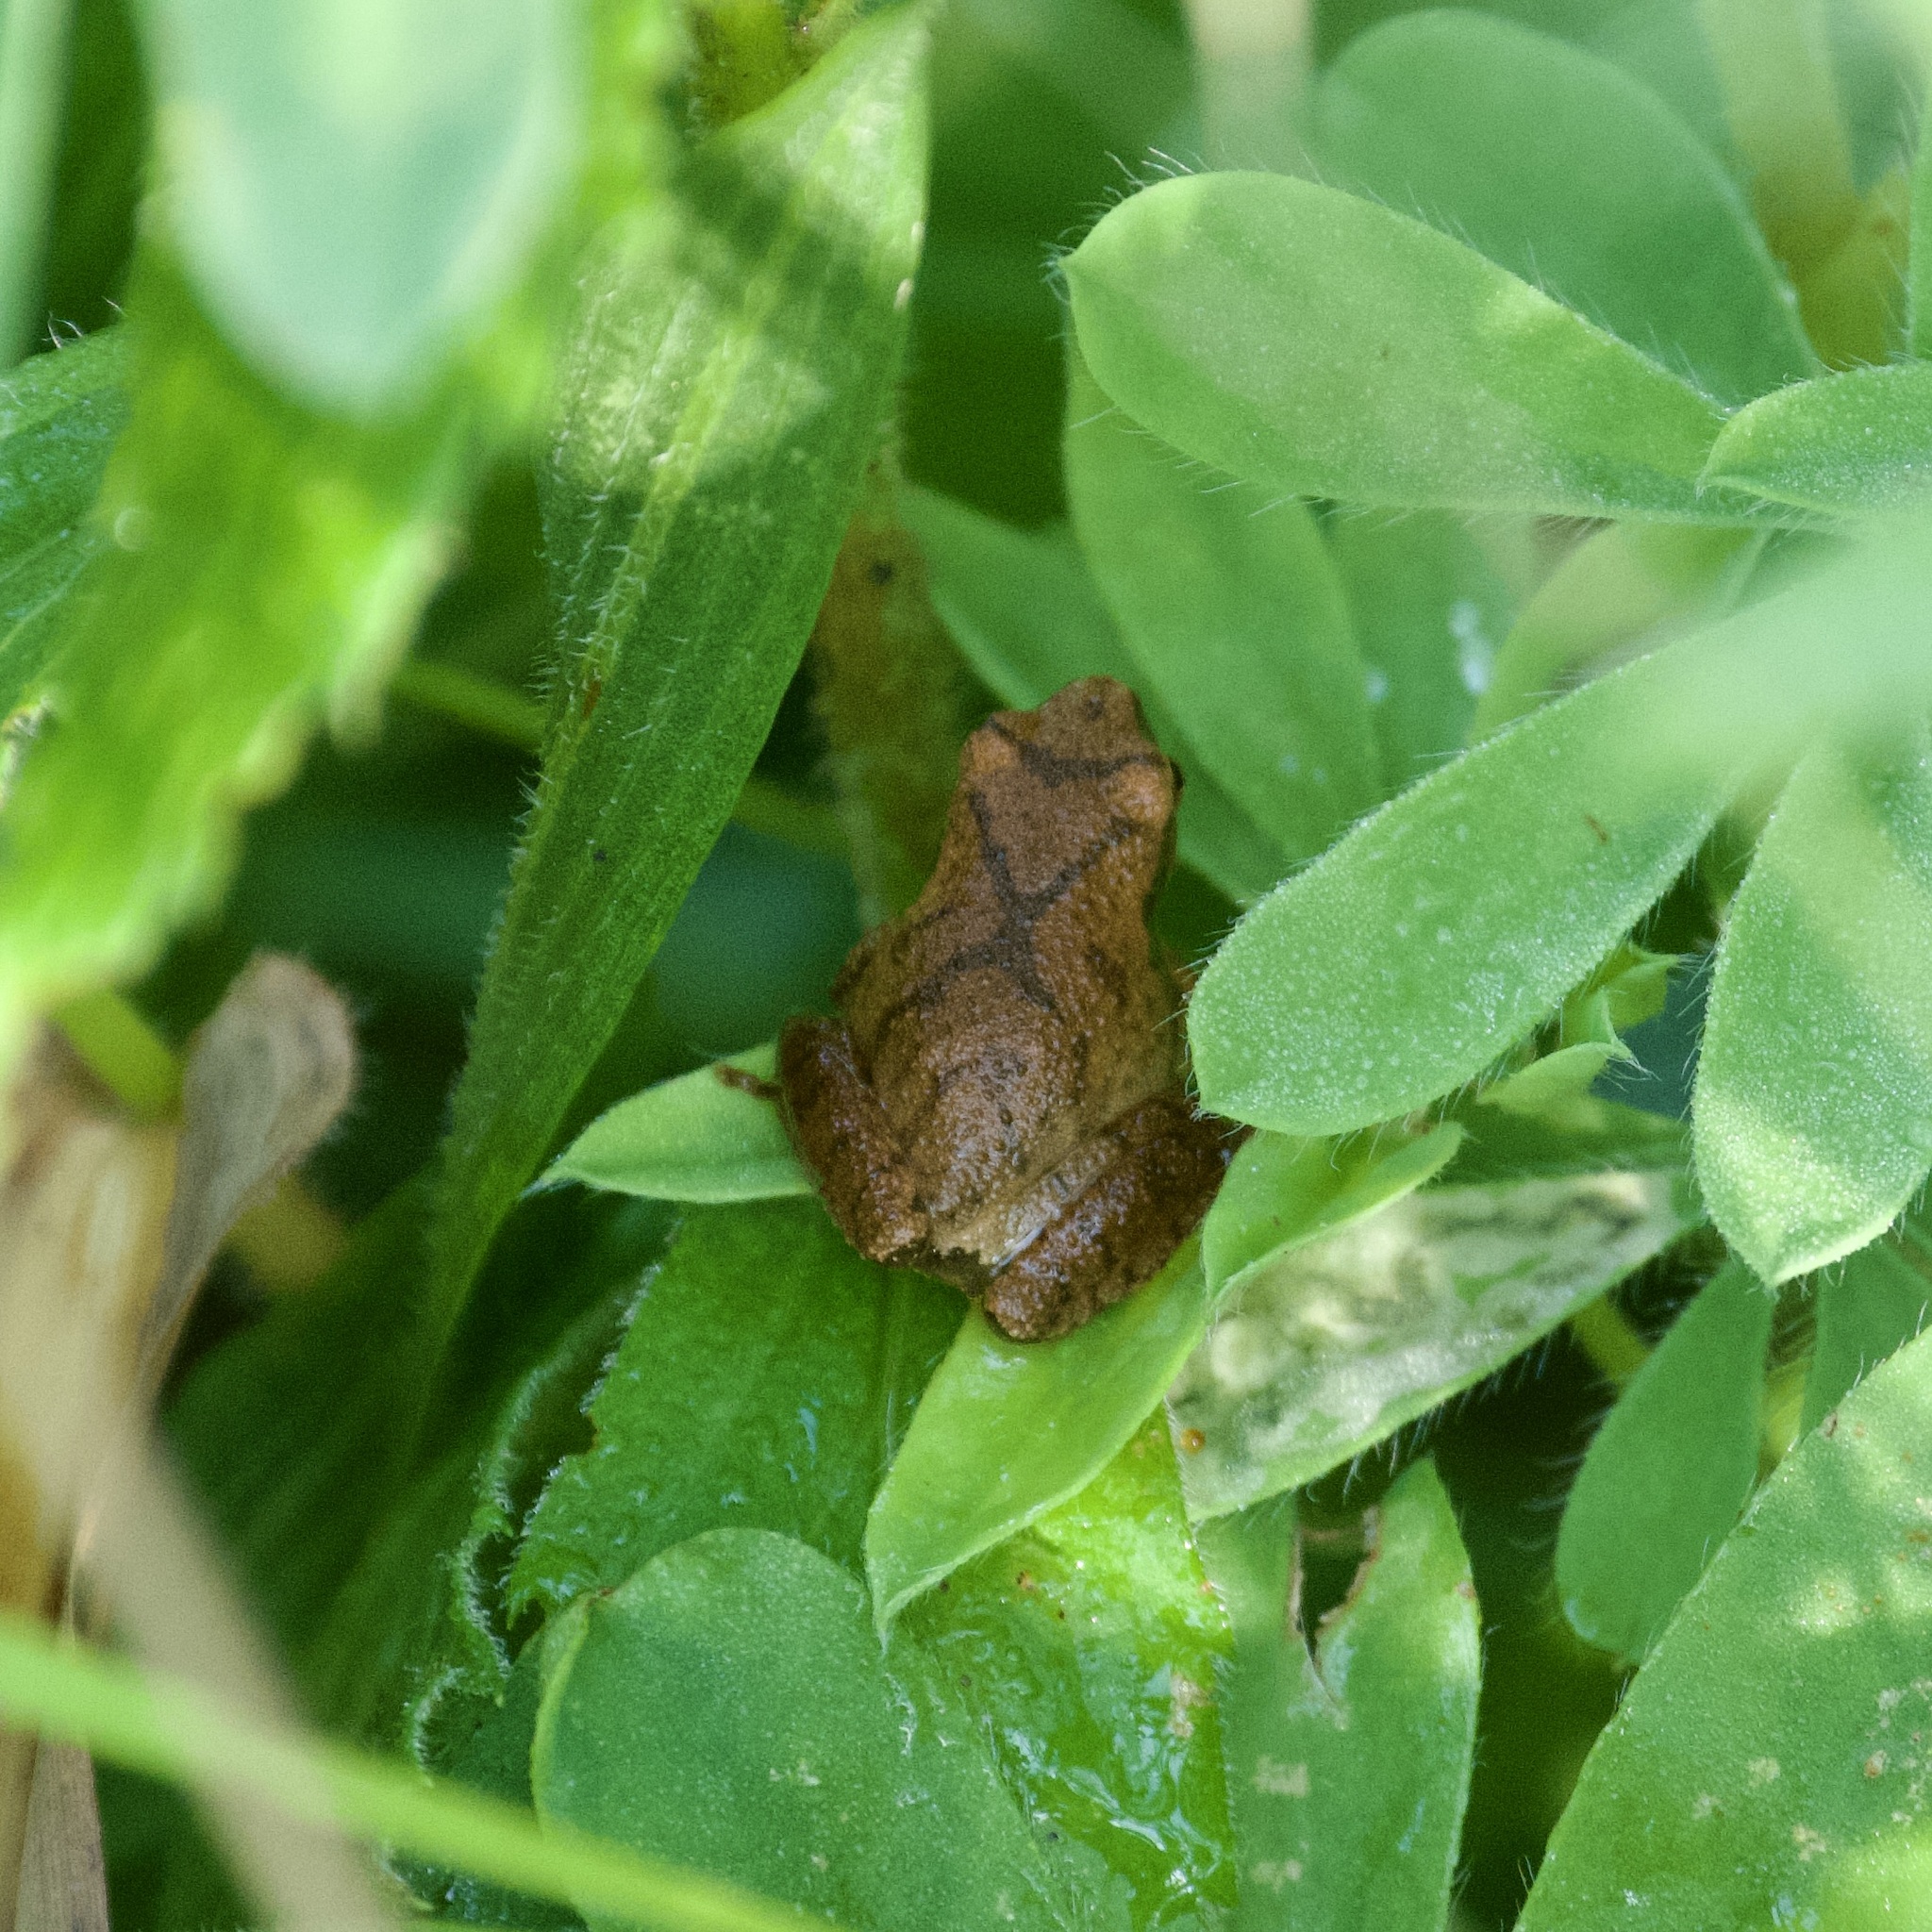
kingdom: Animalia
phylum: Chordata
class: Amphibia
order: Anura
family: Hylidae
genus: Pseudacris
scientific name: Pseudacris crucifer
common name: Spring peeper
